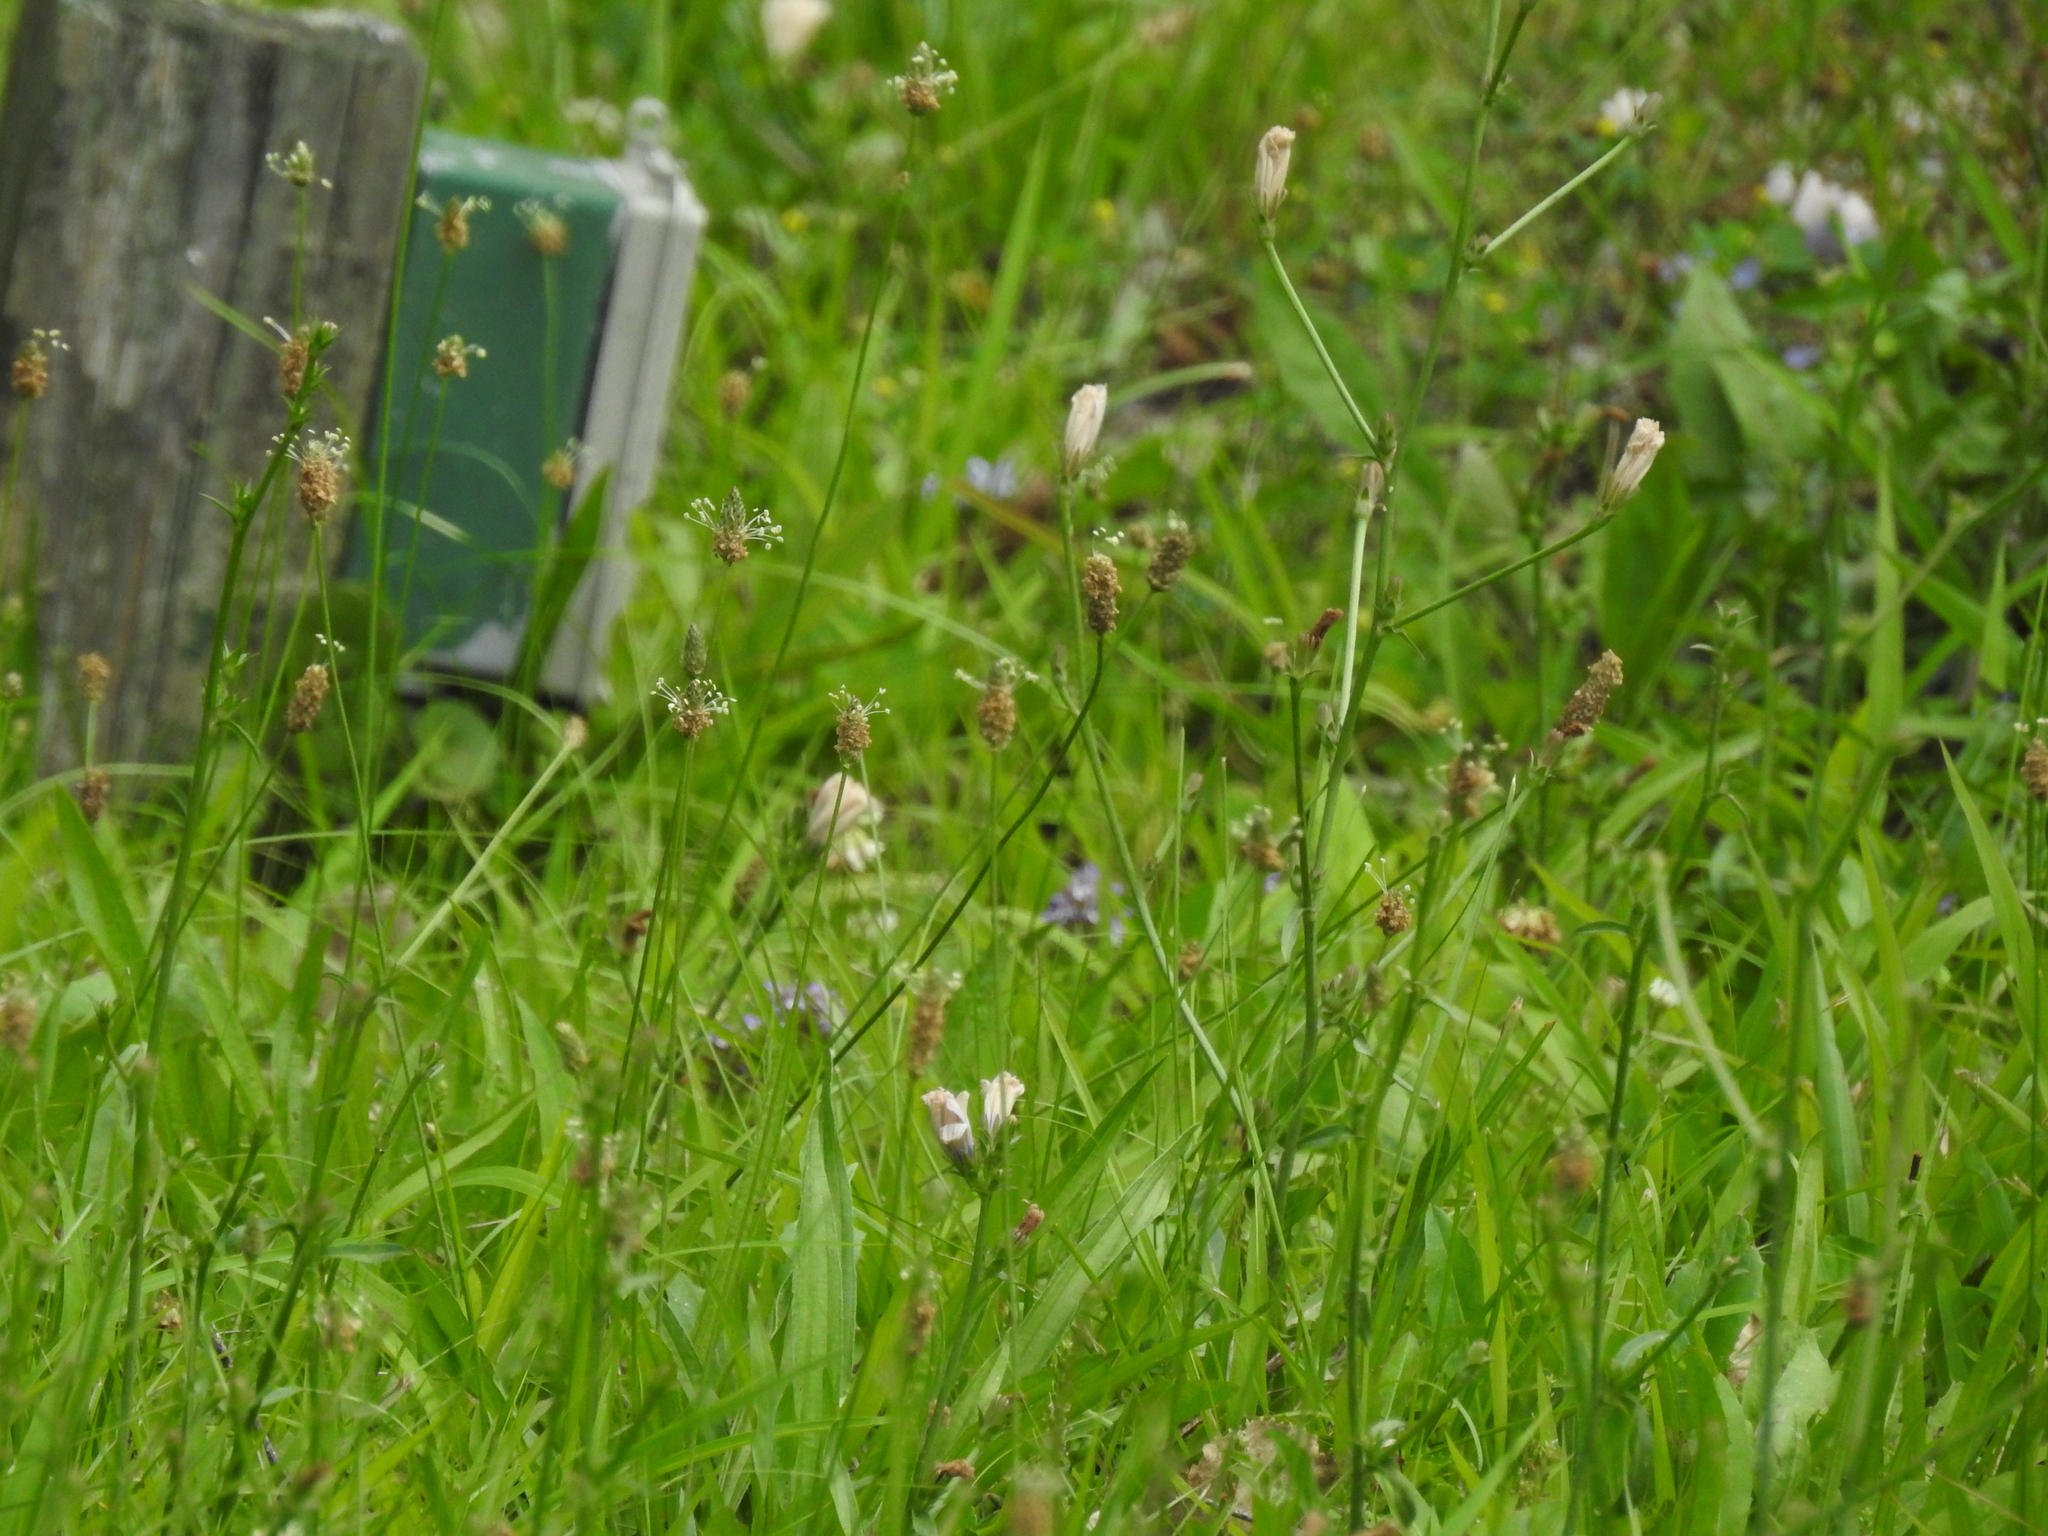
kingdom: Plantae
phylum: Tracheophyta
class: Magnoliopsida
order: Lamiales
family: Plantaginaceae
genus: Plantago
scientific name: Plantago lanceolata
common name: Ribwort plantain
